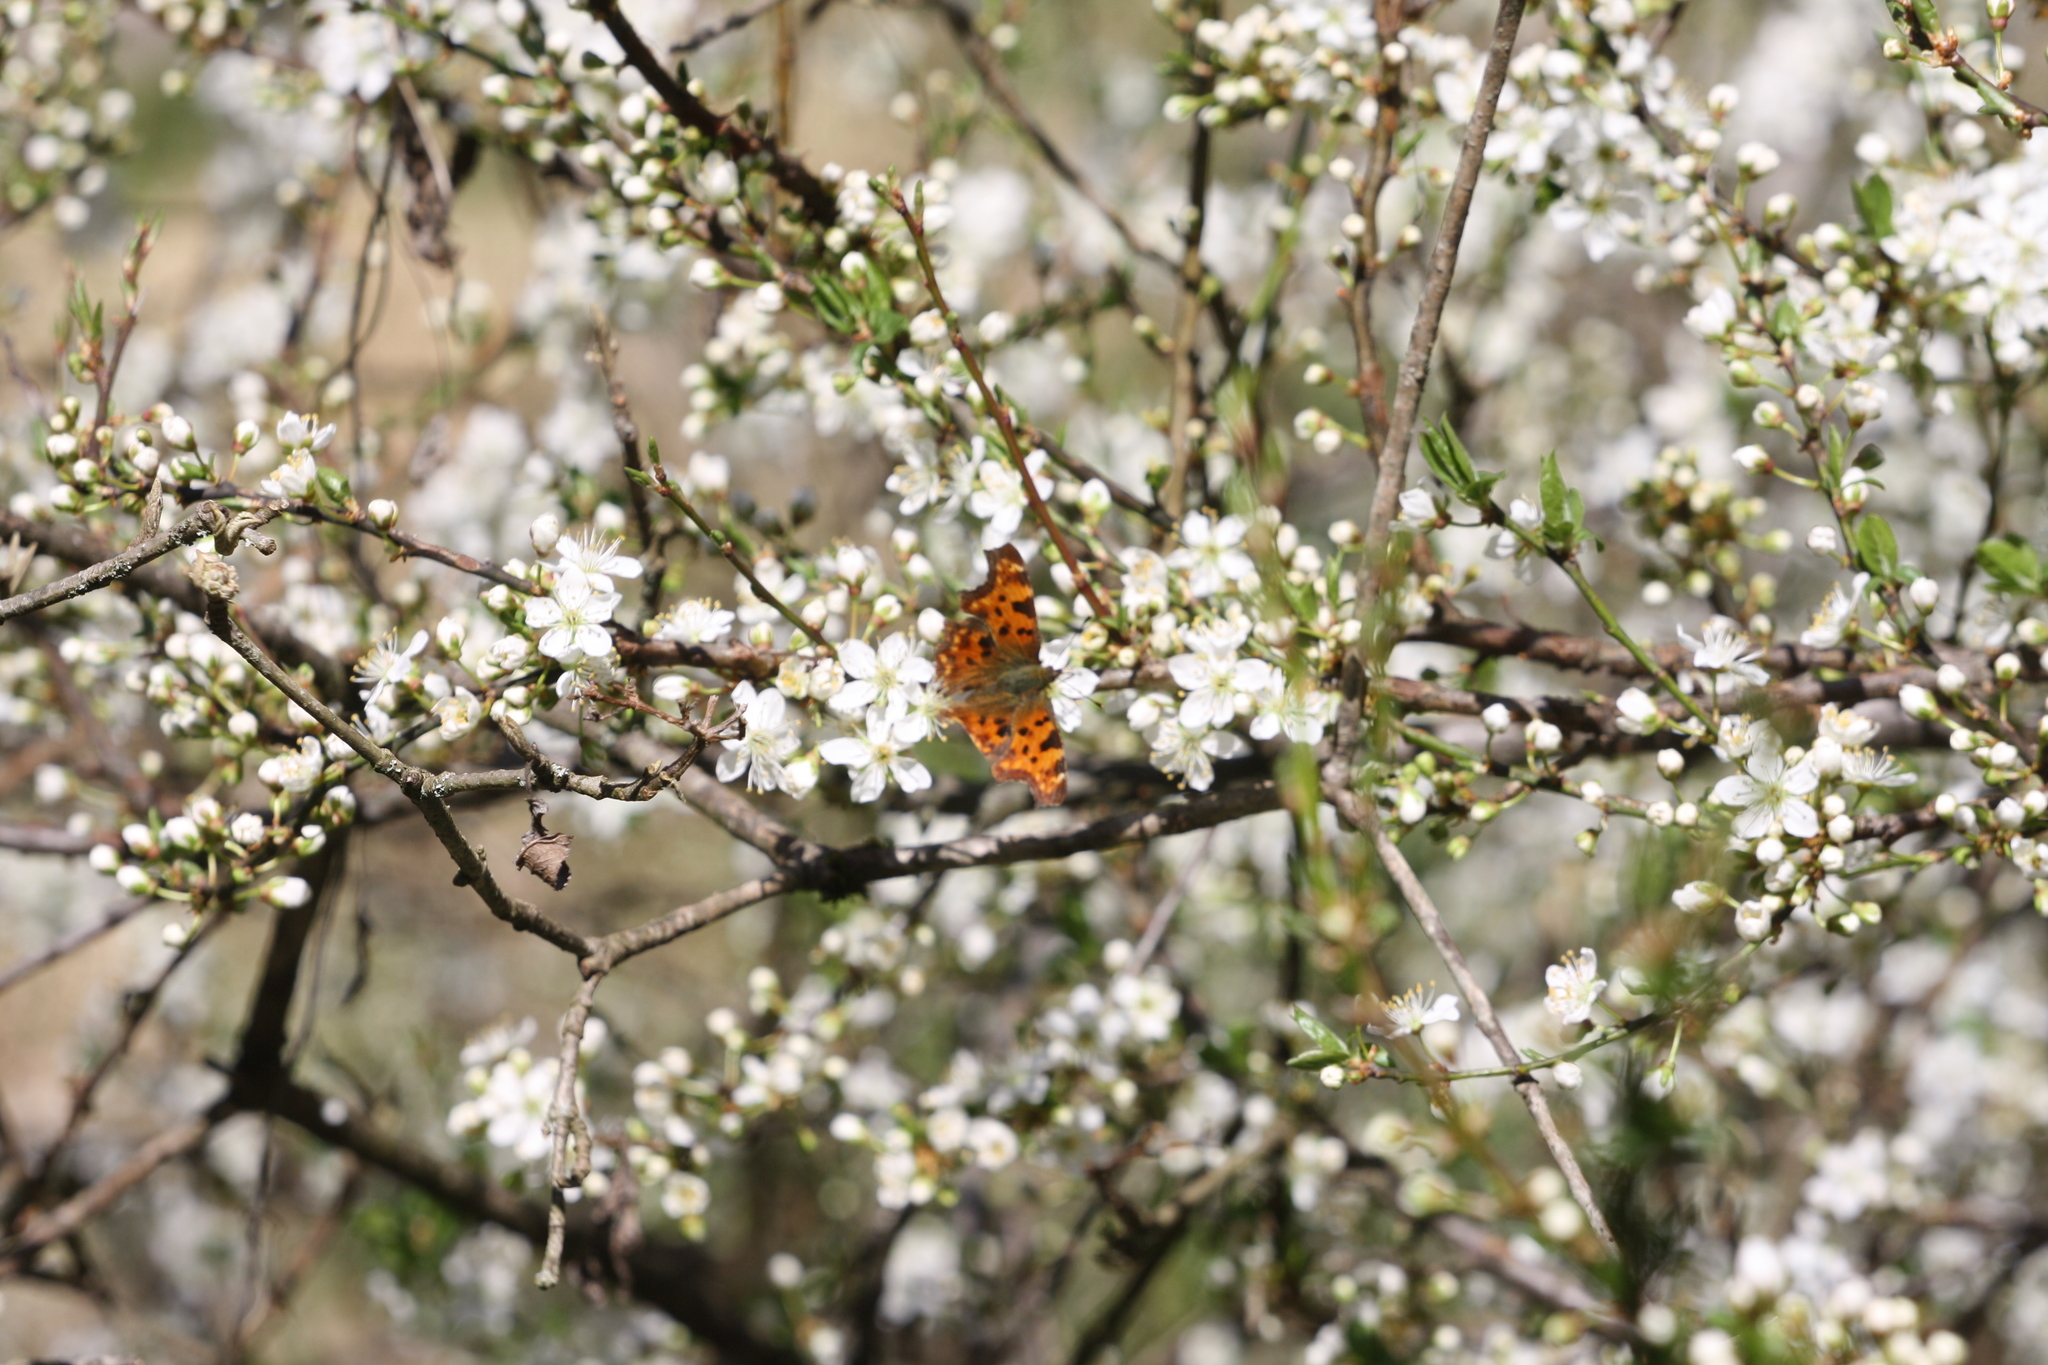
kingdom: Animalia
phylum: Arthropoda
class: Insecta
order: Lepidoptera
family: Nymphalidae
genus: Polygonia
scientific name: Polygonia c-album
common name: Comma
